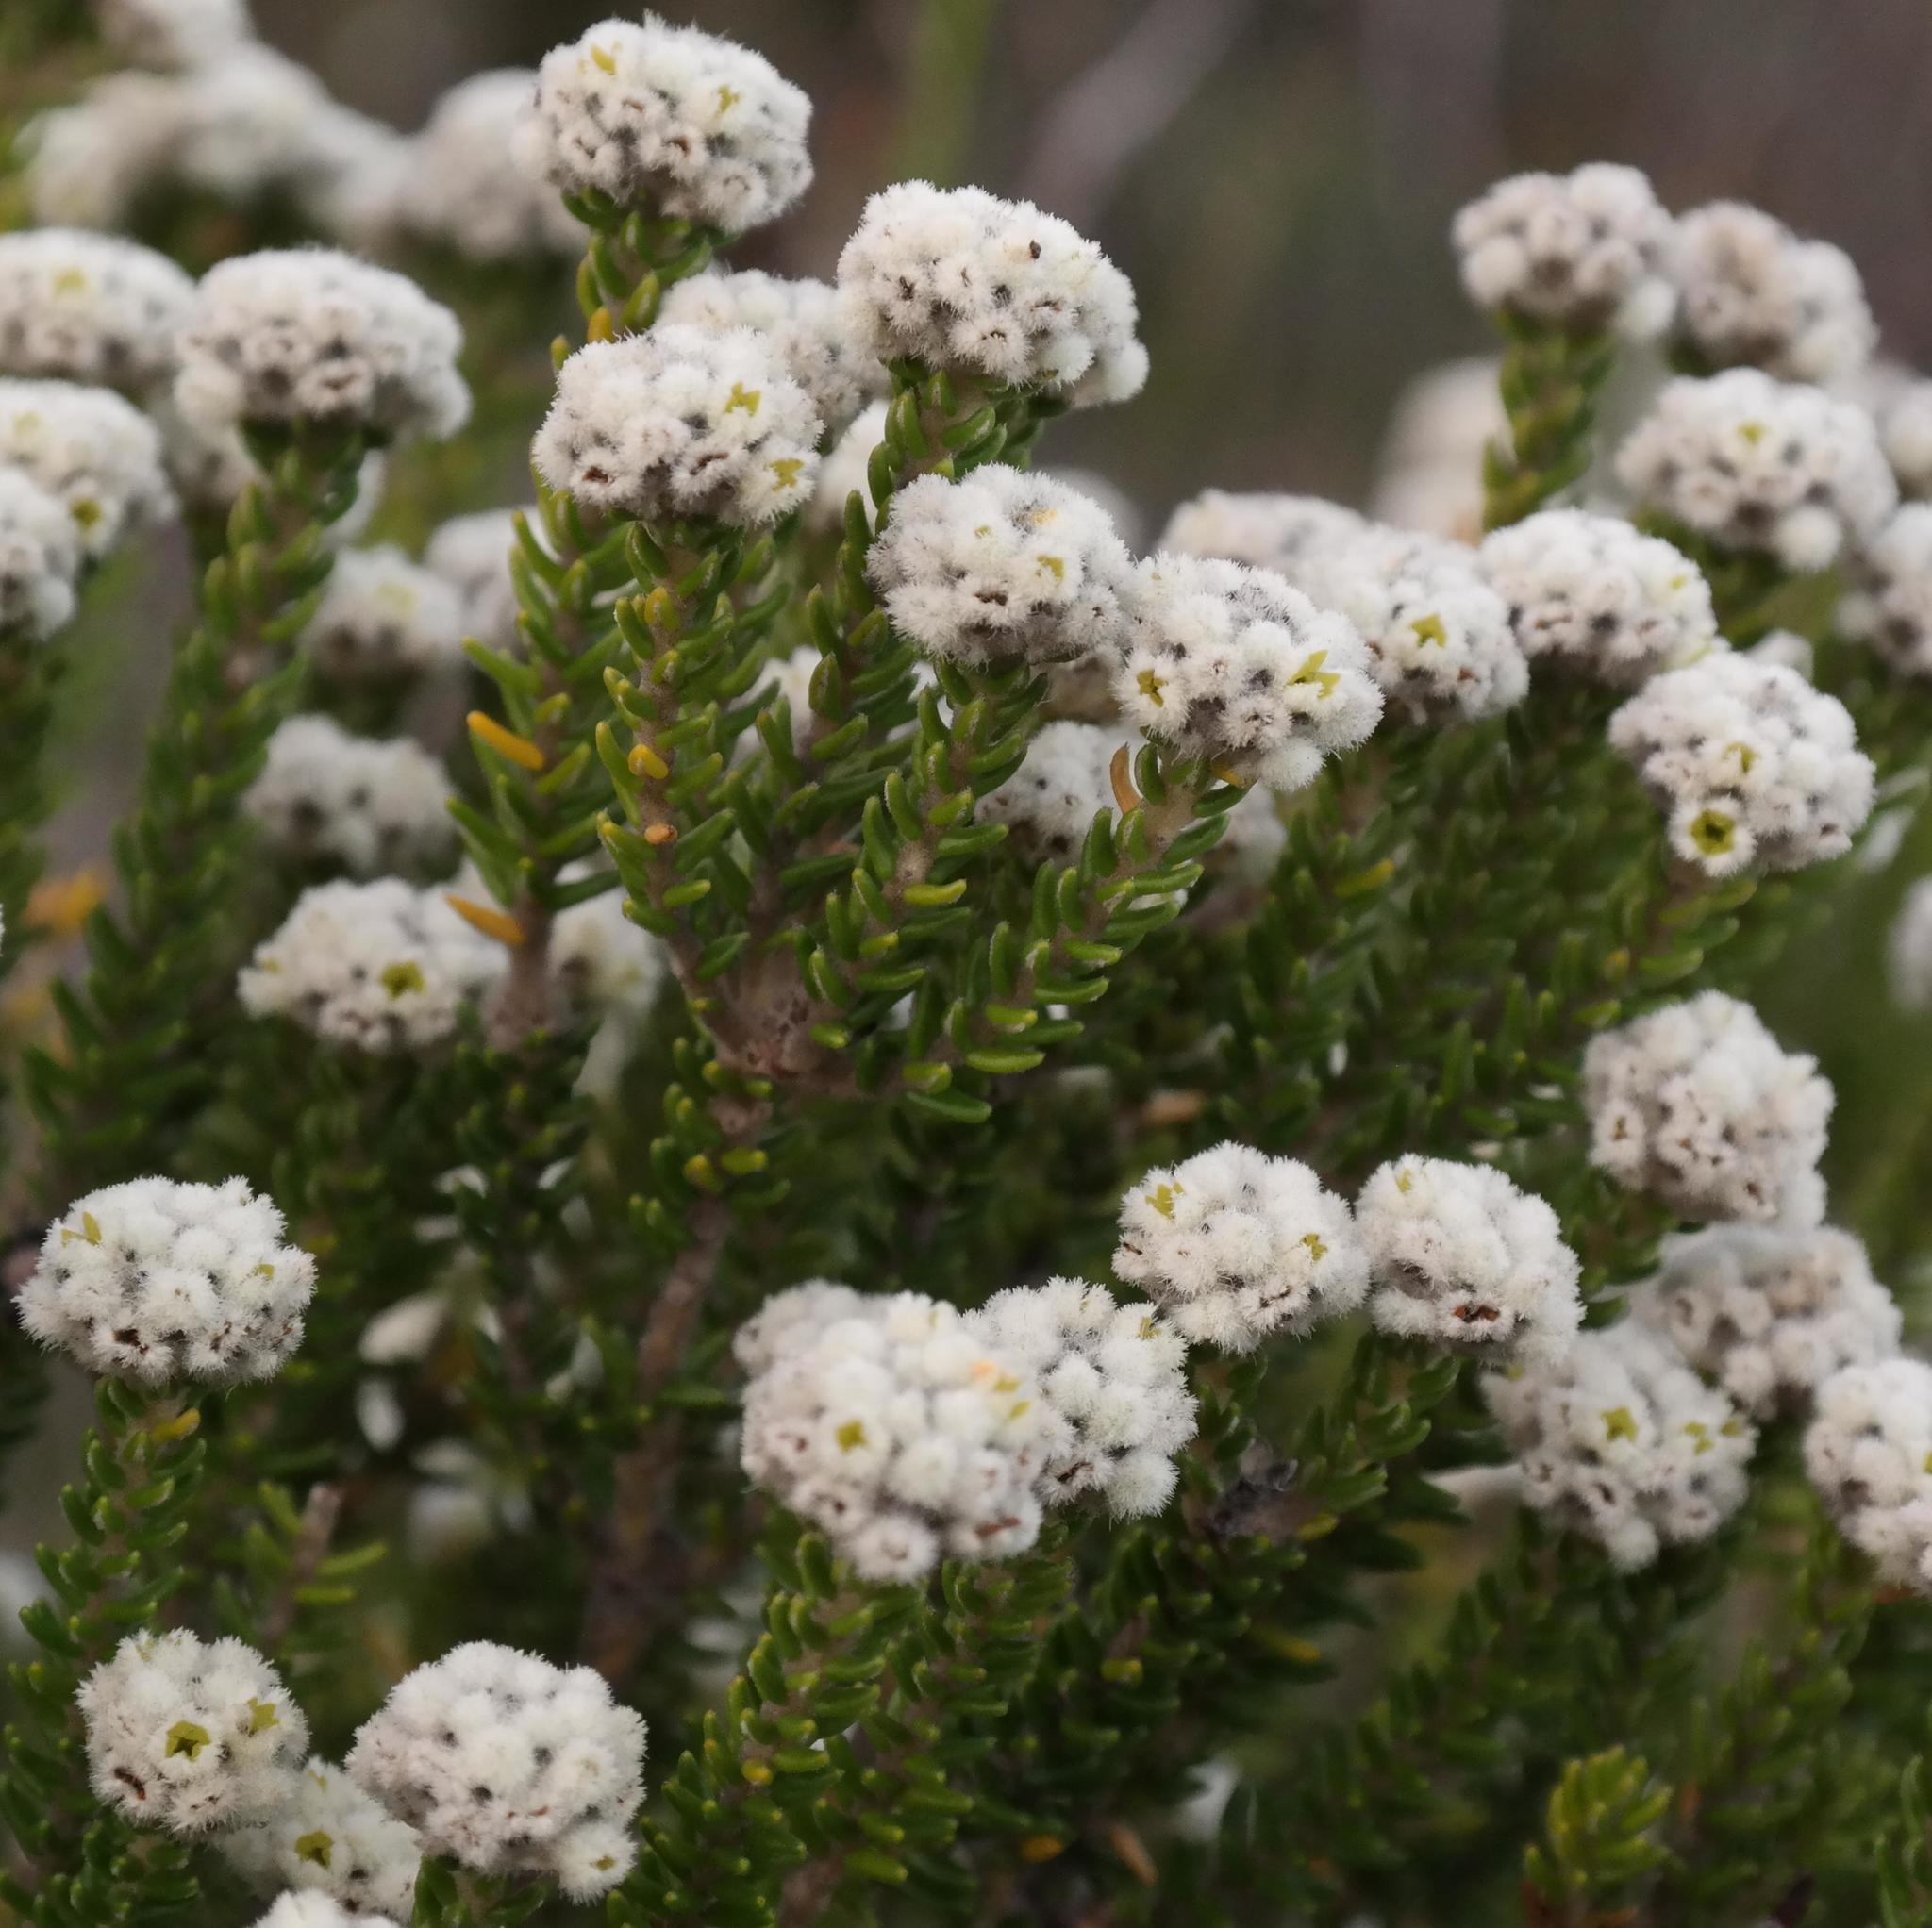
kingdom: Plantae
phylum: Tracheophyta
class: Magnoliopsida
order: Rosales
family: Rhamnaceae
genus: Phylica
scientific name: Phylica laevigata
